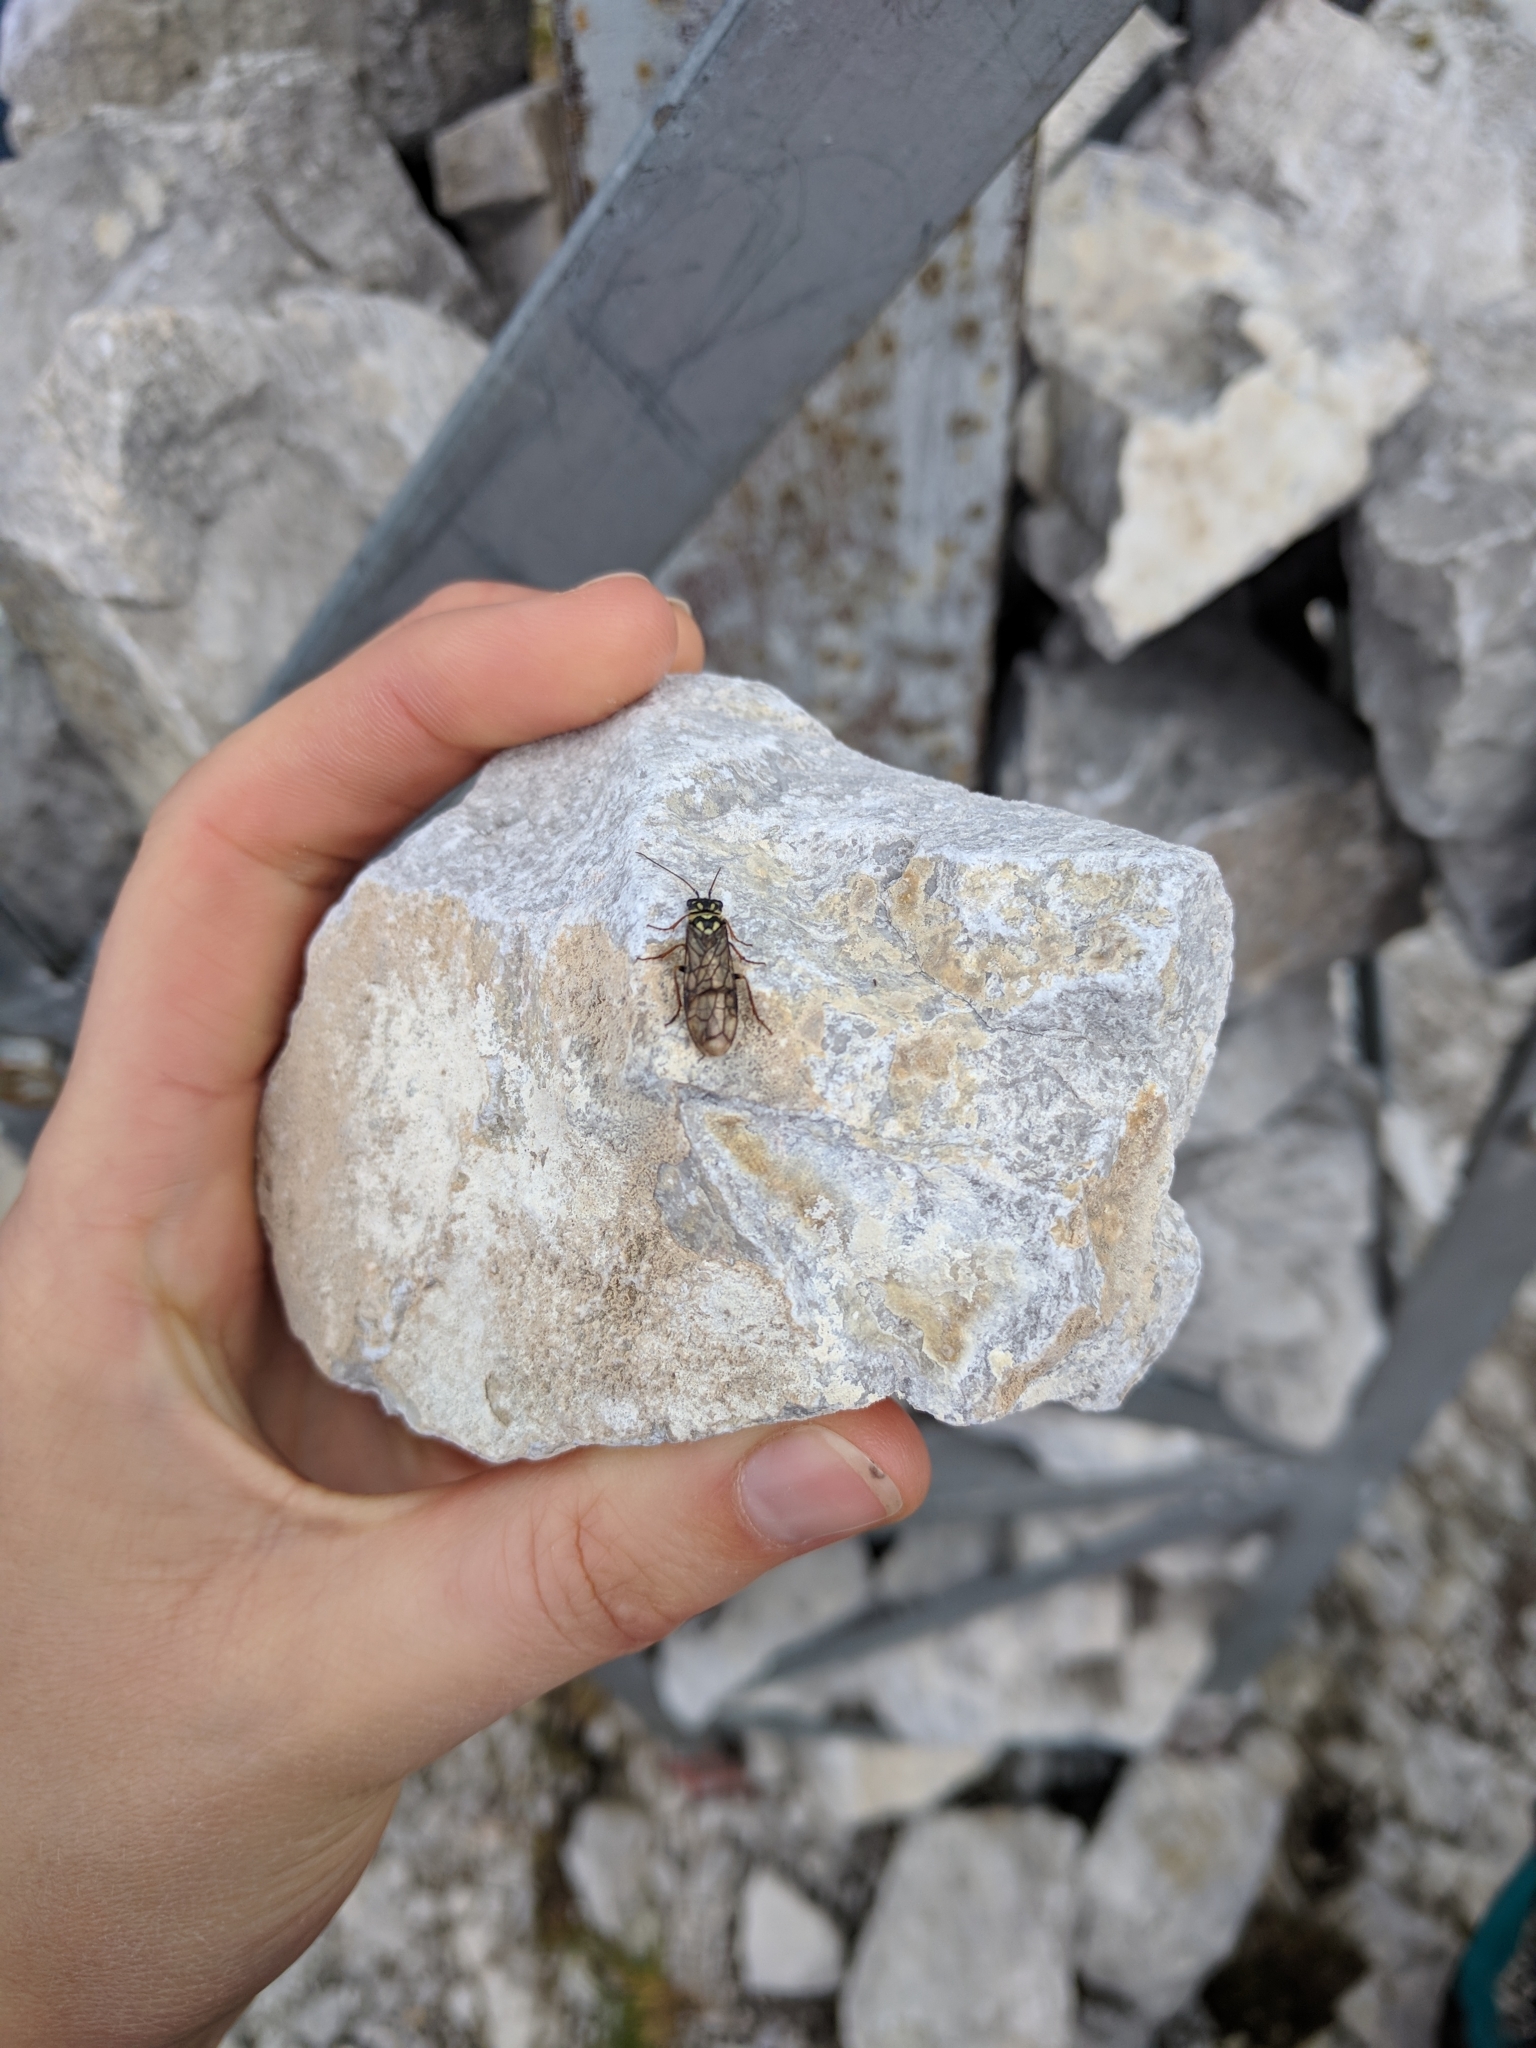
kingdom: Animalia
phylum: Arthropoda
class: Insecta
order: Hymenoptera
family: Pamphiliidae
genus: Acantholyda
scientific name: Acantholyda posticalis
